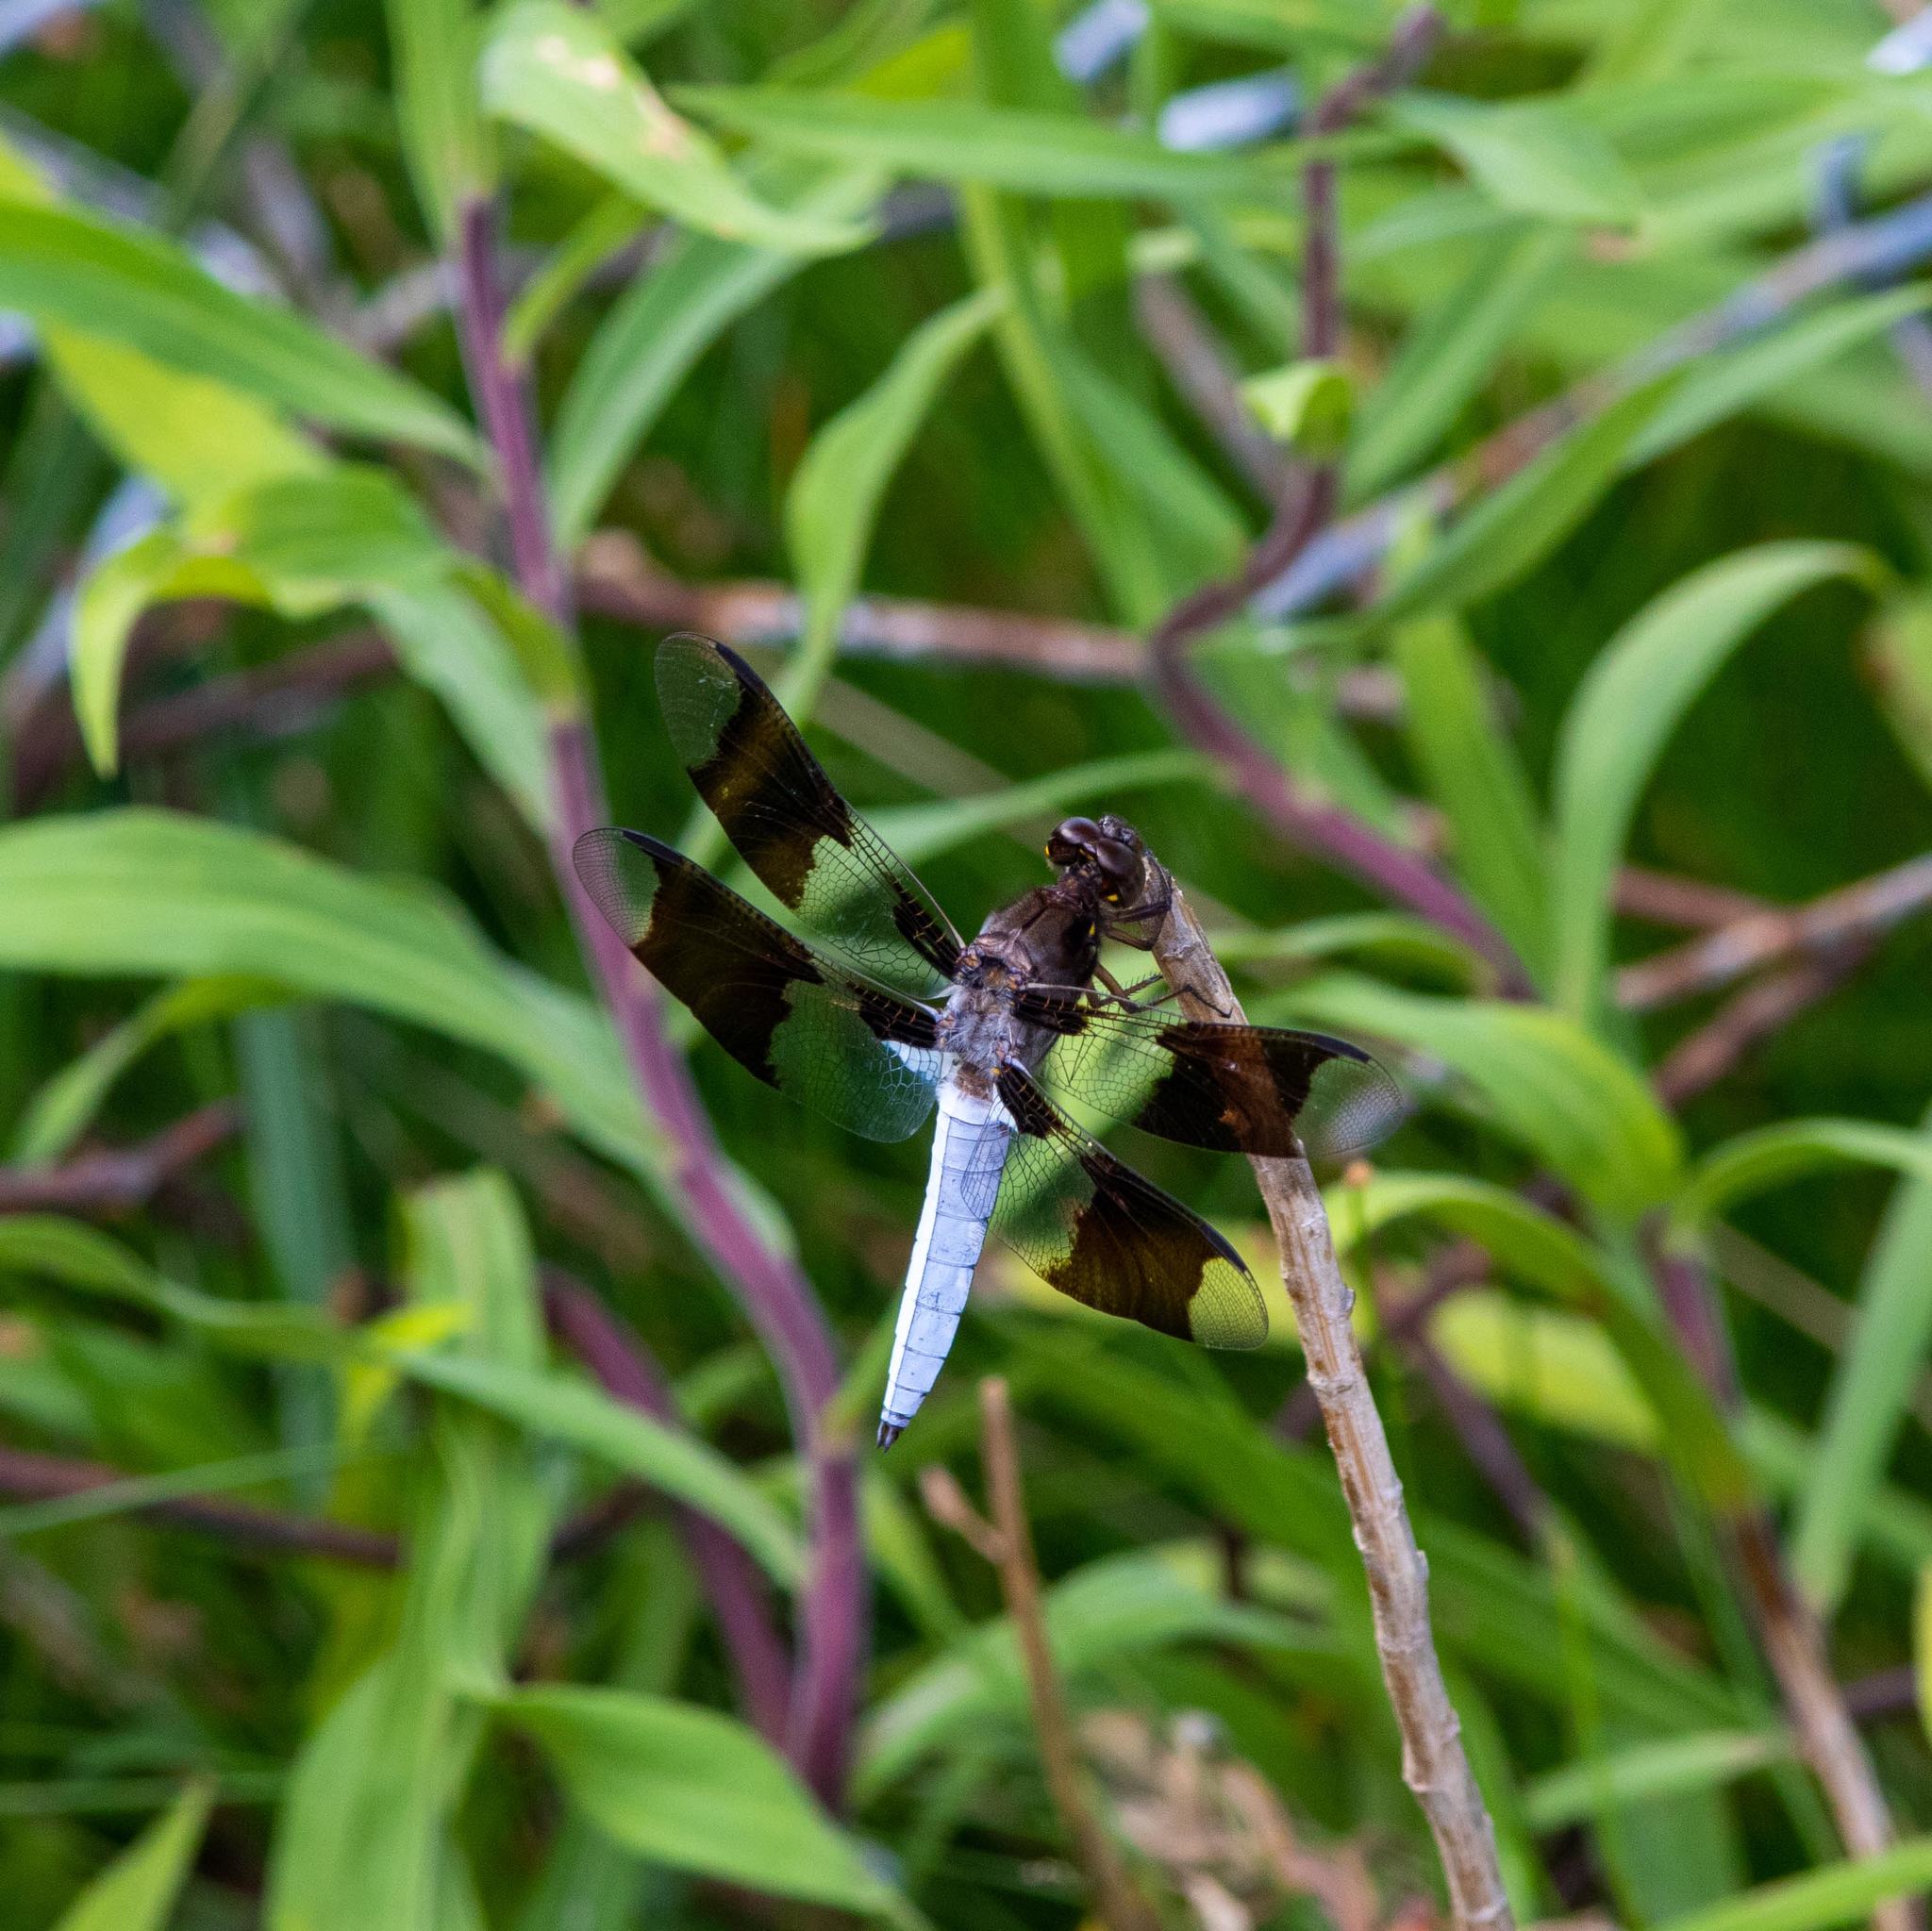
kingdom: Animalia
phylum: Arthropoda
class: Insecta
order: Odonata
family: Libellulidae
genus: Plathemis
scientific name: Plathemis lydia
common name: Common whitetail
